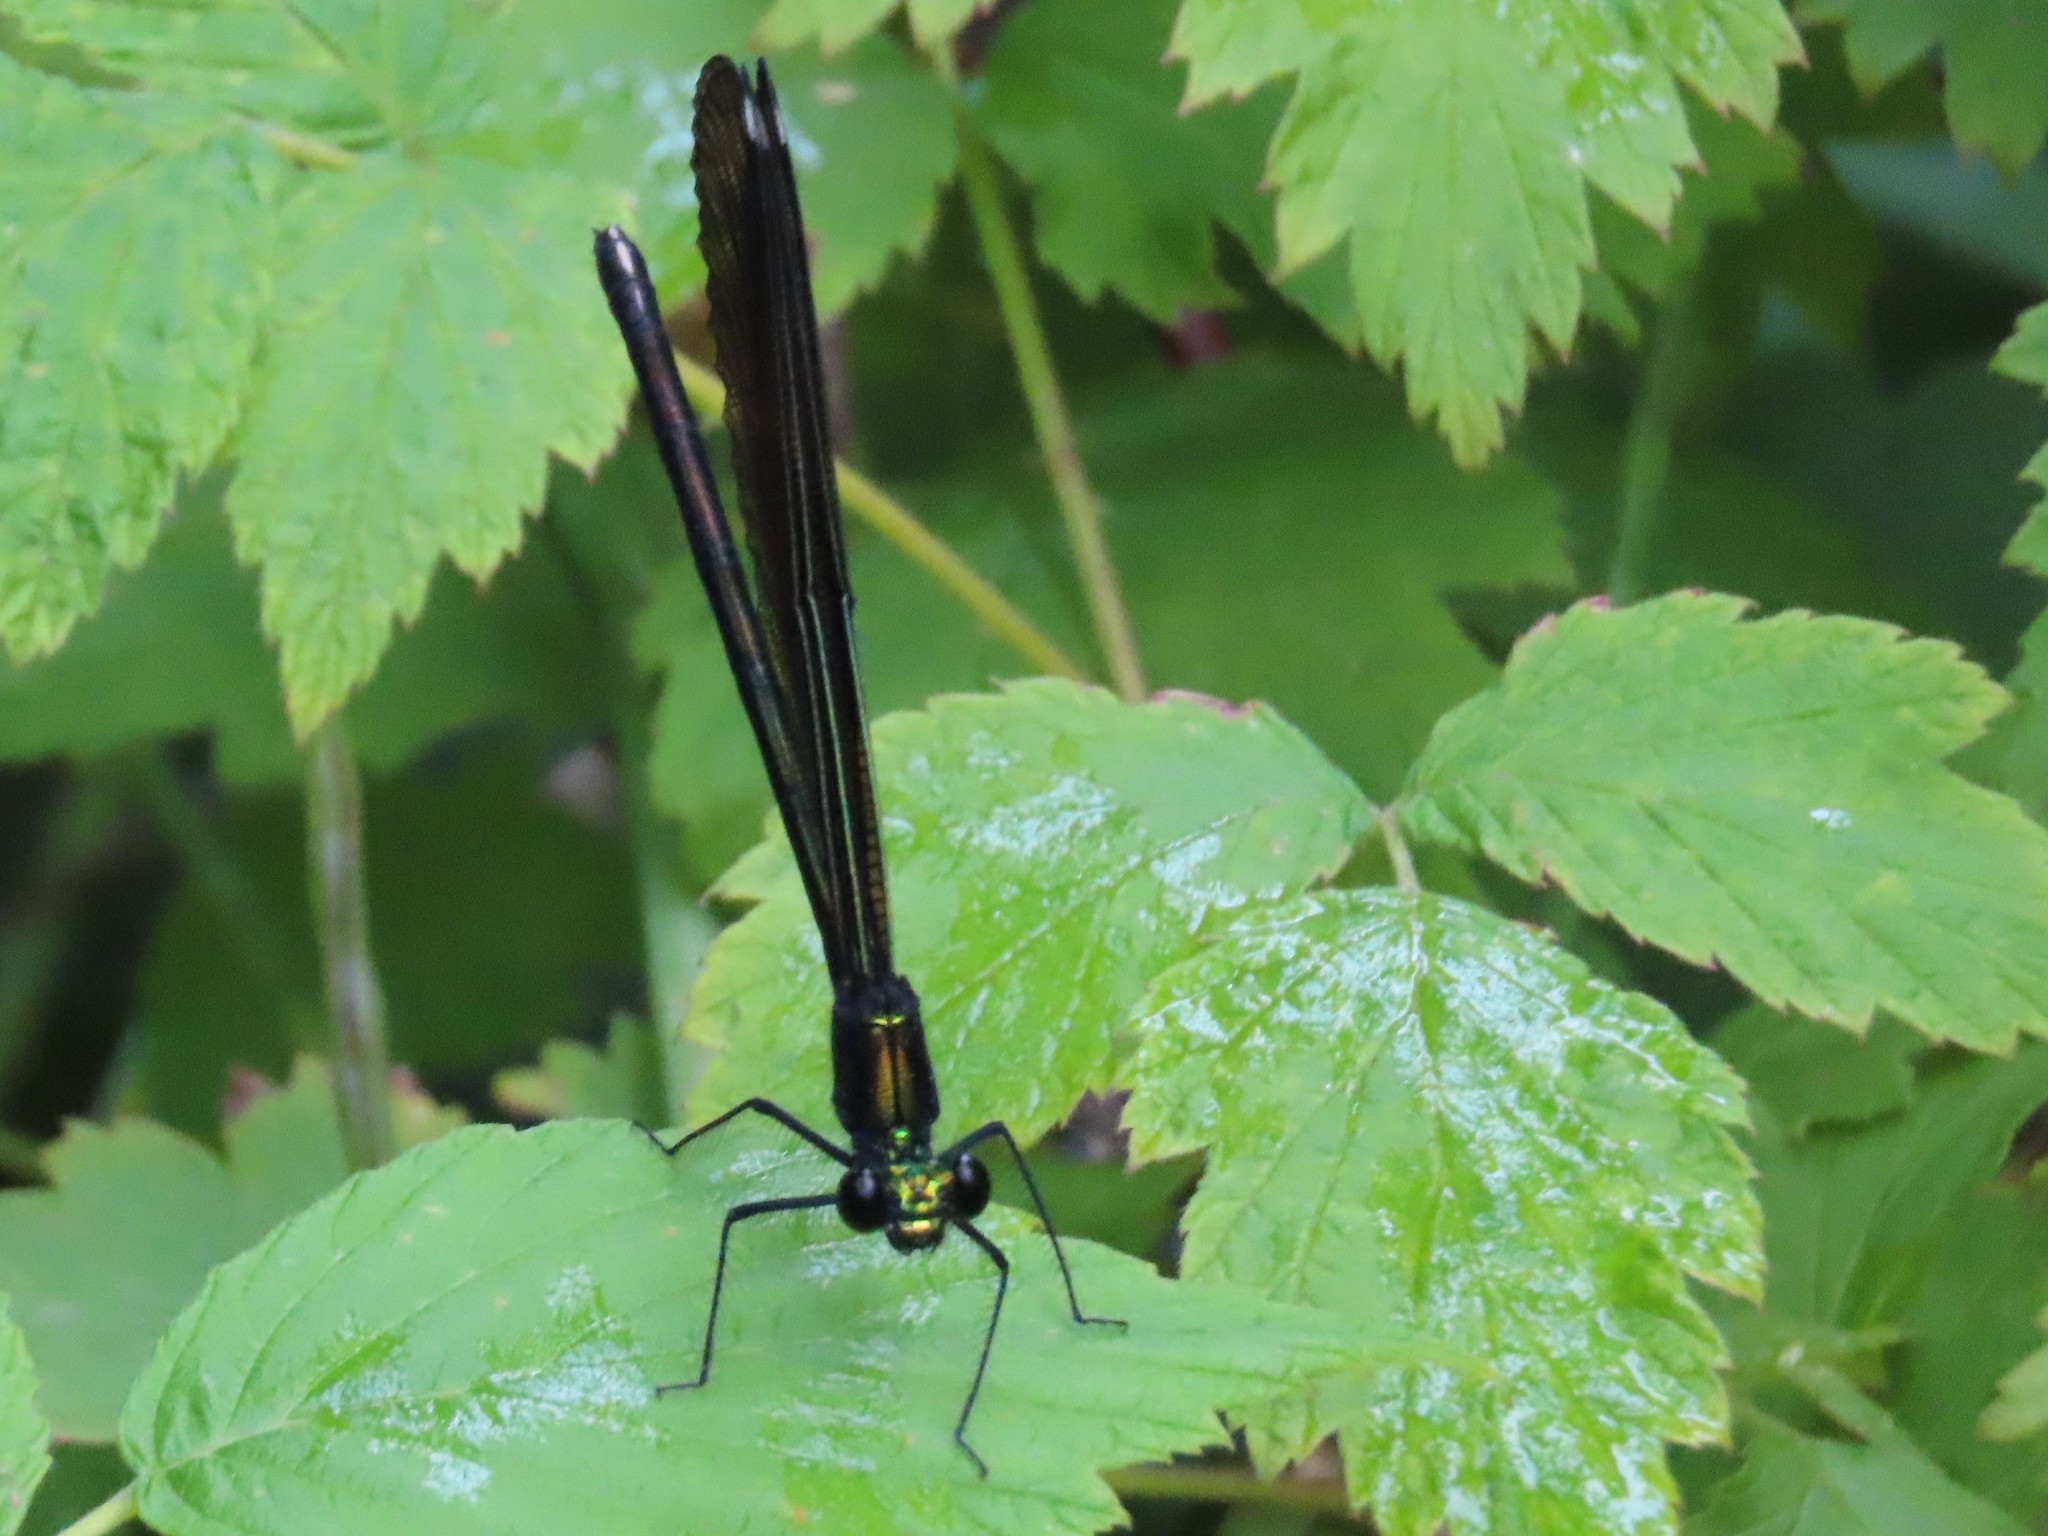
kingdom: Animalia
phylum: Arthropoda
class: Insecta
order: Odonata
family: Calopterygidae
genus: Calopteryx
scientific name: Calopteryx maculata
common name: Ebony jewelwing
